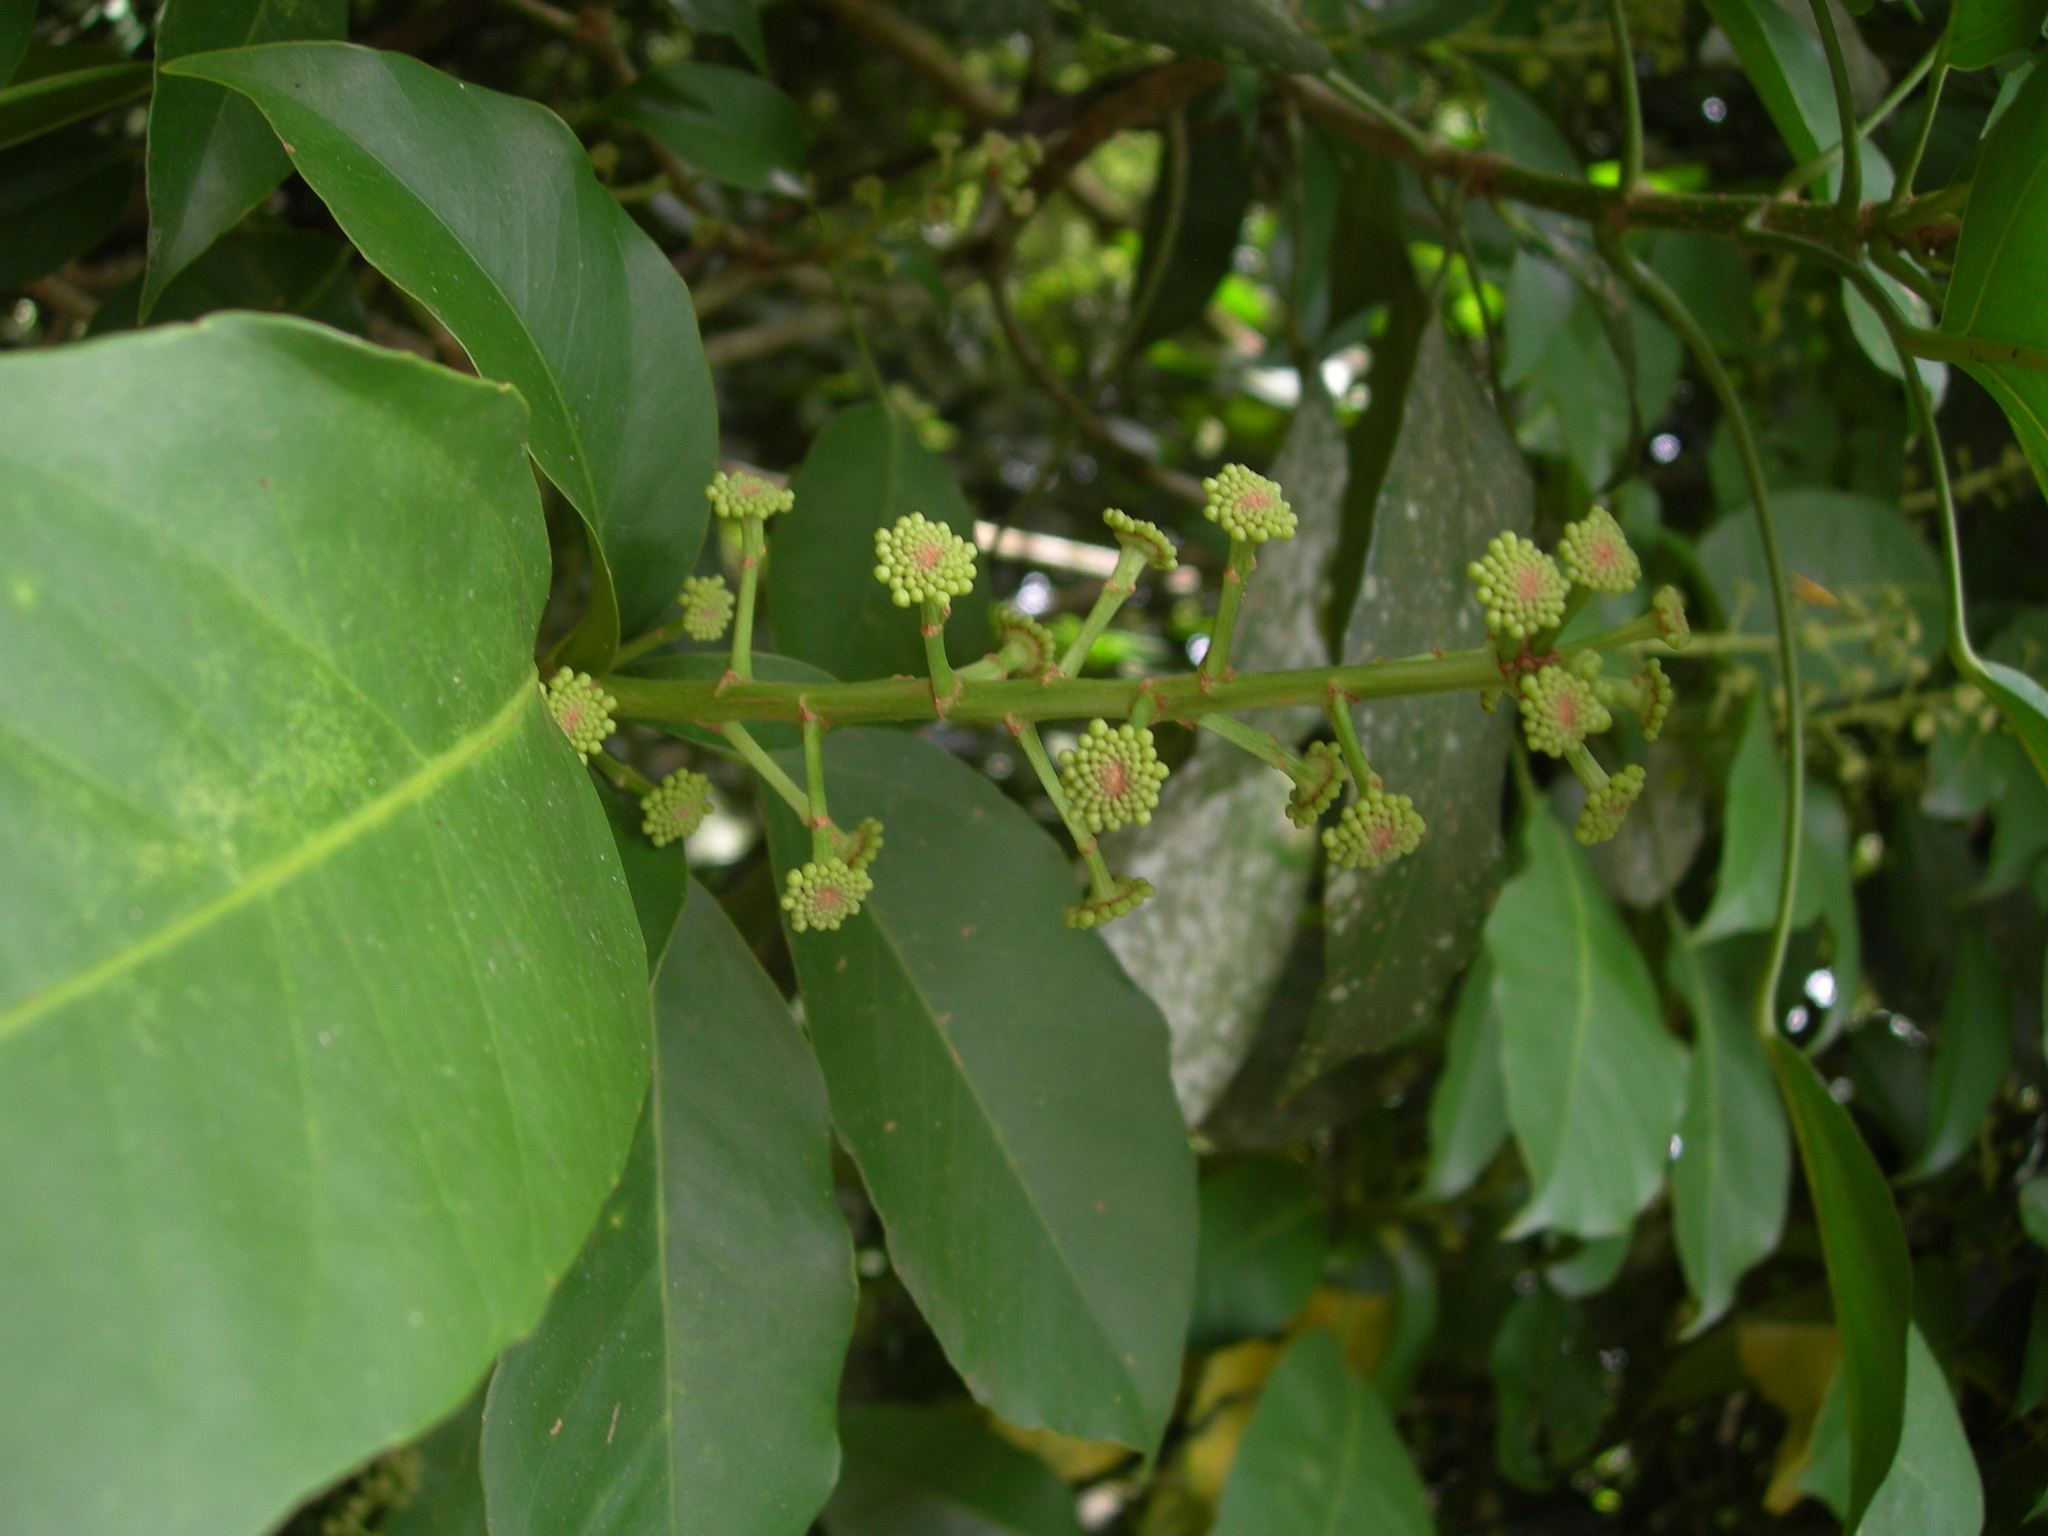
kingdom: Plantae
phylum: Tracheophyta
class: Magnoliopsida
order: Apiales
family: Araliaceae
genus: Dendropanax
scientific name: Dendropanax arboreus
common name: Potato-wood
